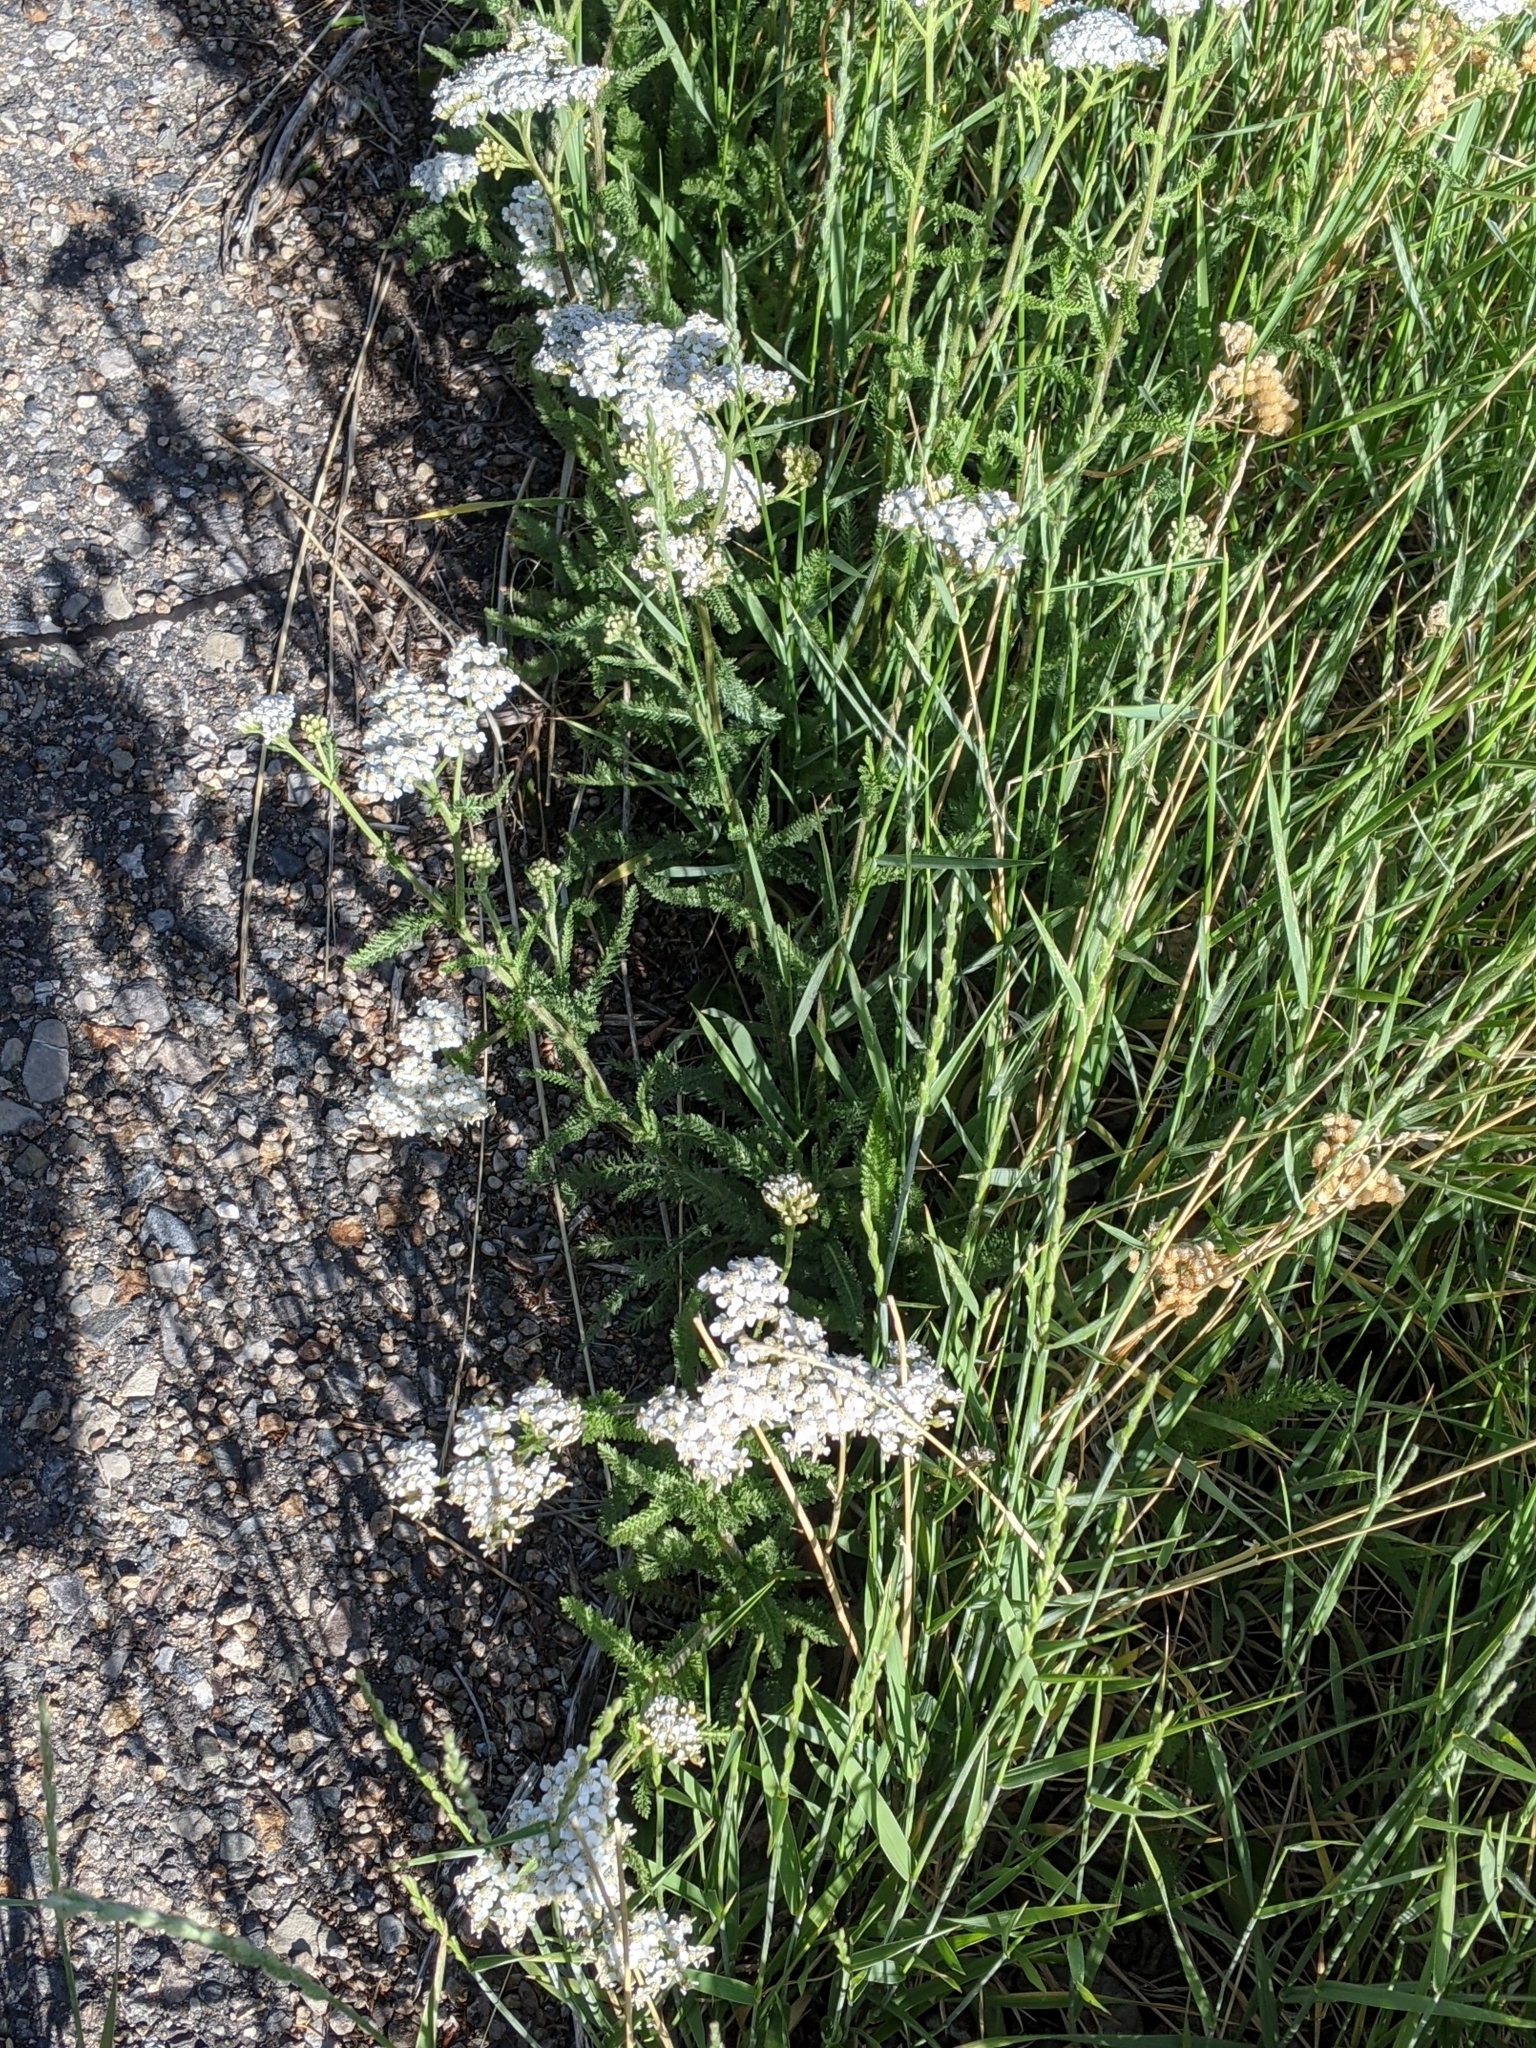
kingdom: Plantae
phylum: Tracheophyta
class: Magnoliopsida
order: Asterales
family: Asteraceae
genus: Achillea
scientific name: Achillea millefolium
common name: Yarrow
